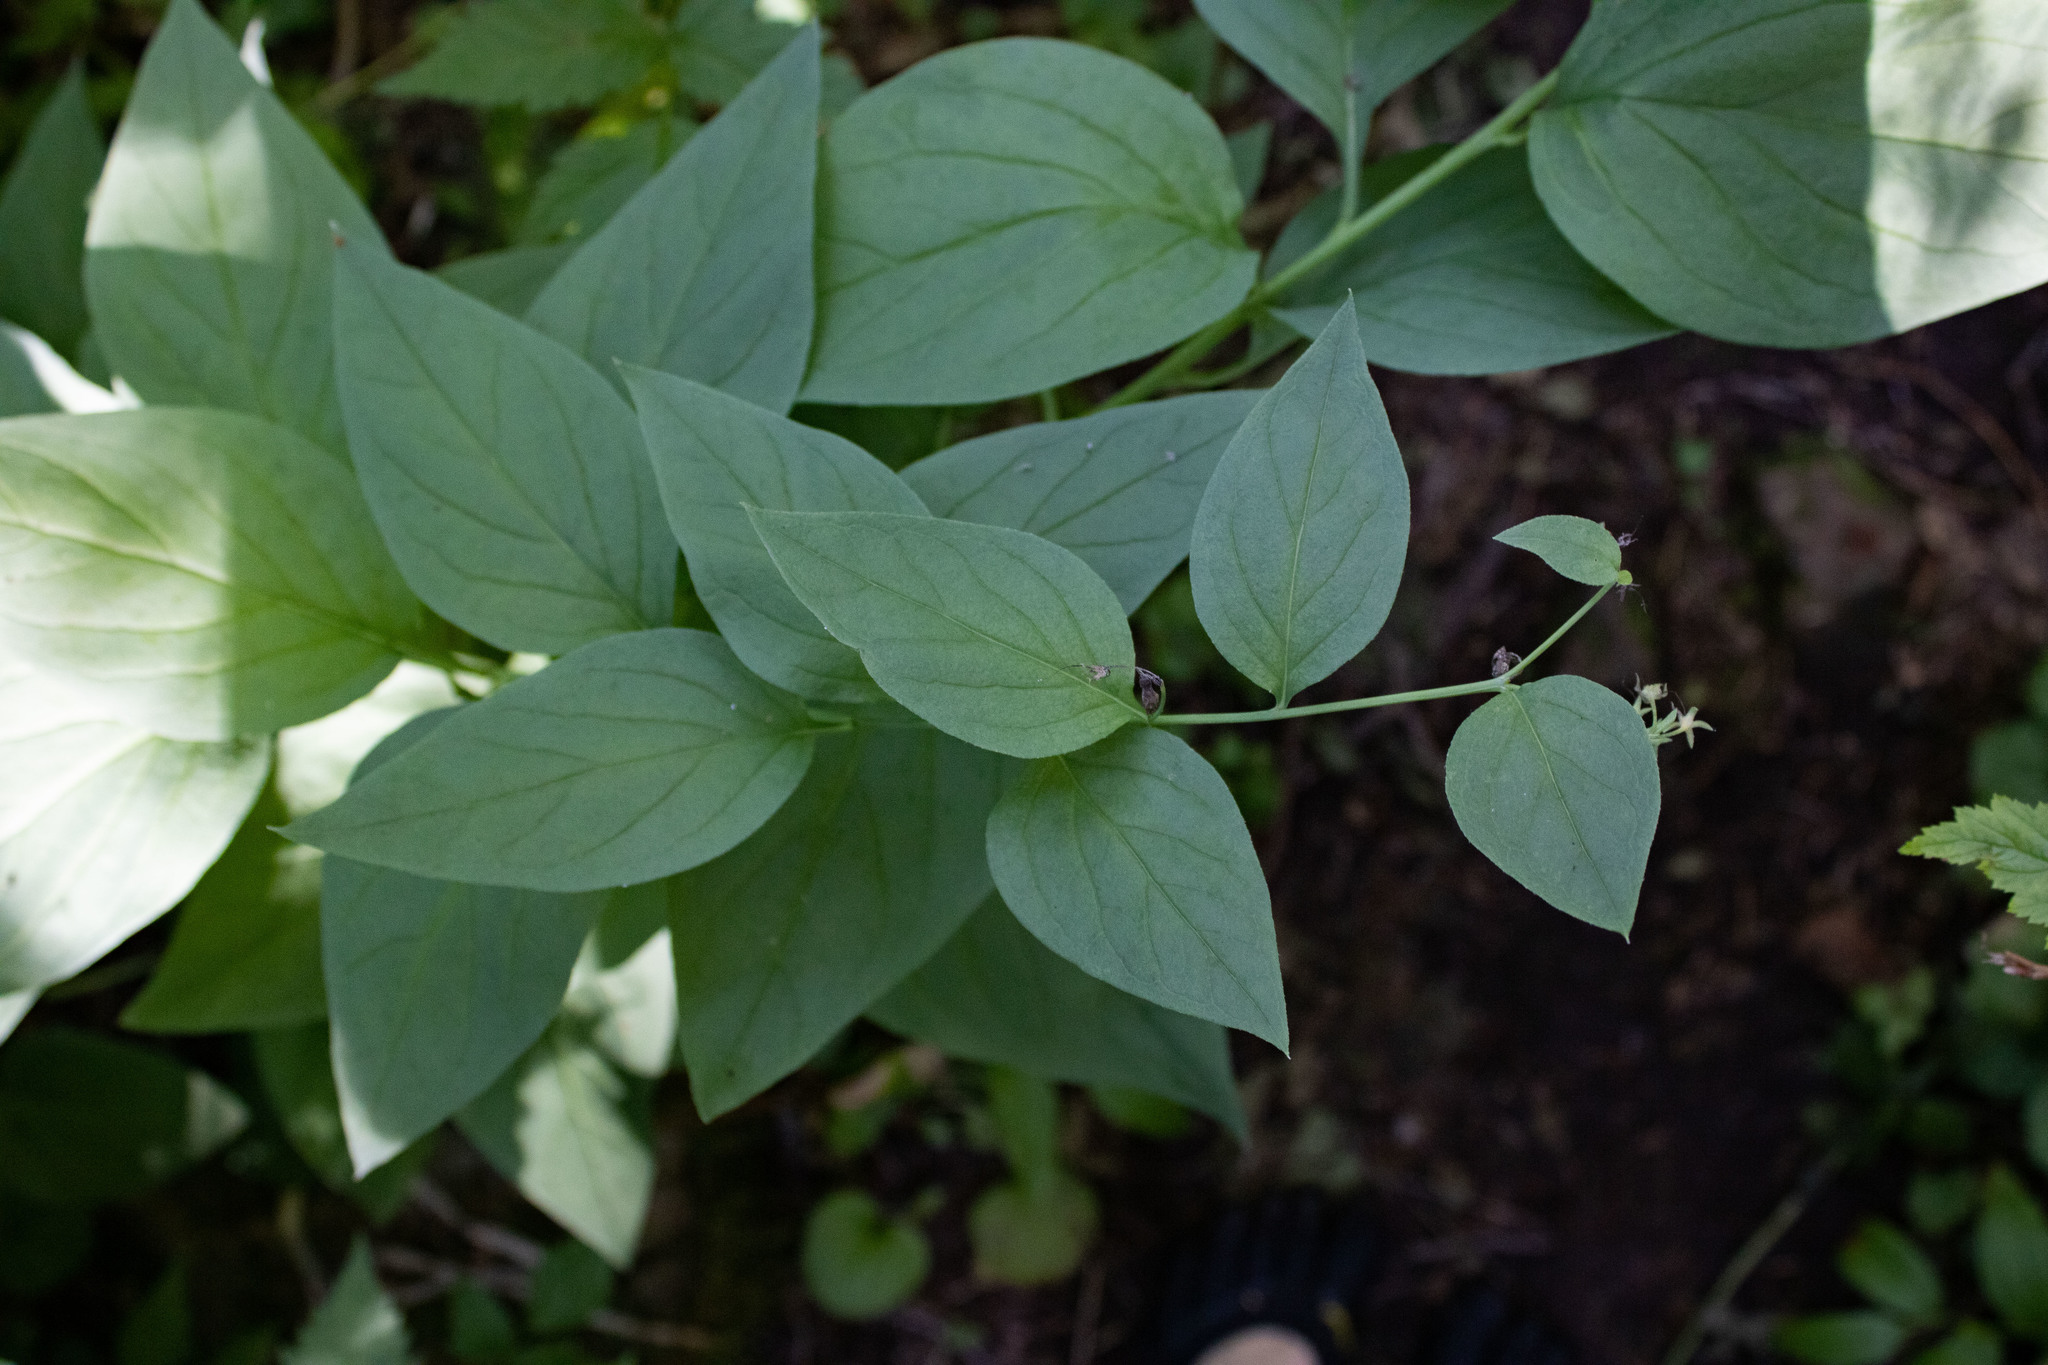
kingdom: Plantae
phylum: Tracheophyta
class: Magnoliopsida
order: Boraginales
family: Boraginaceae
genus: Mertensia
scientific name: Mertensia paniculata
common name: Panicled bluebells
